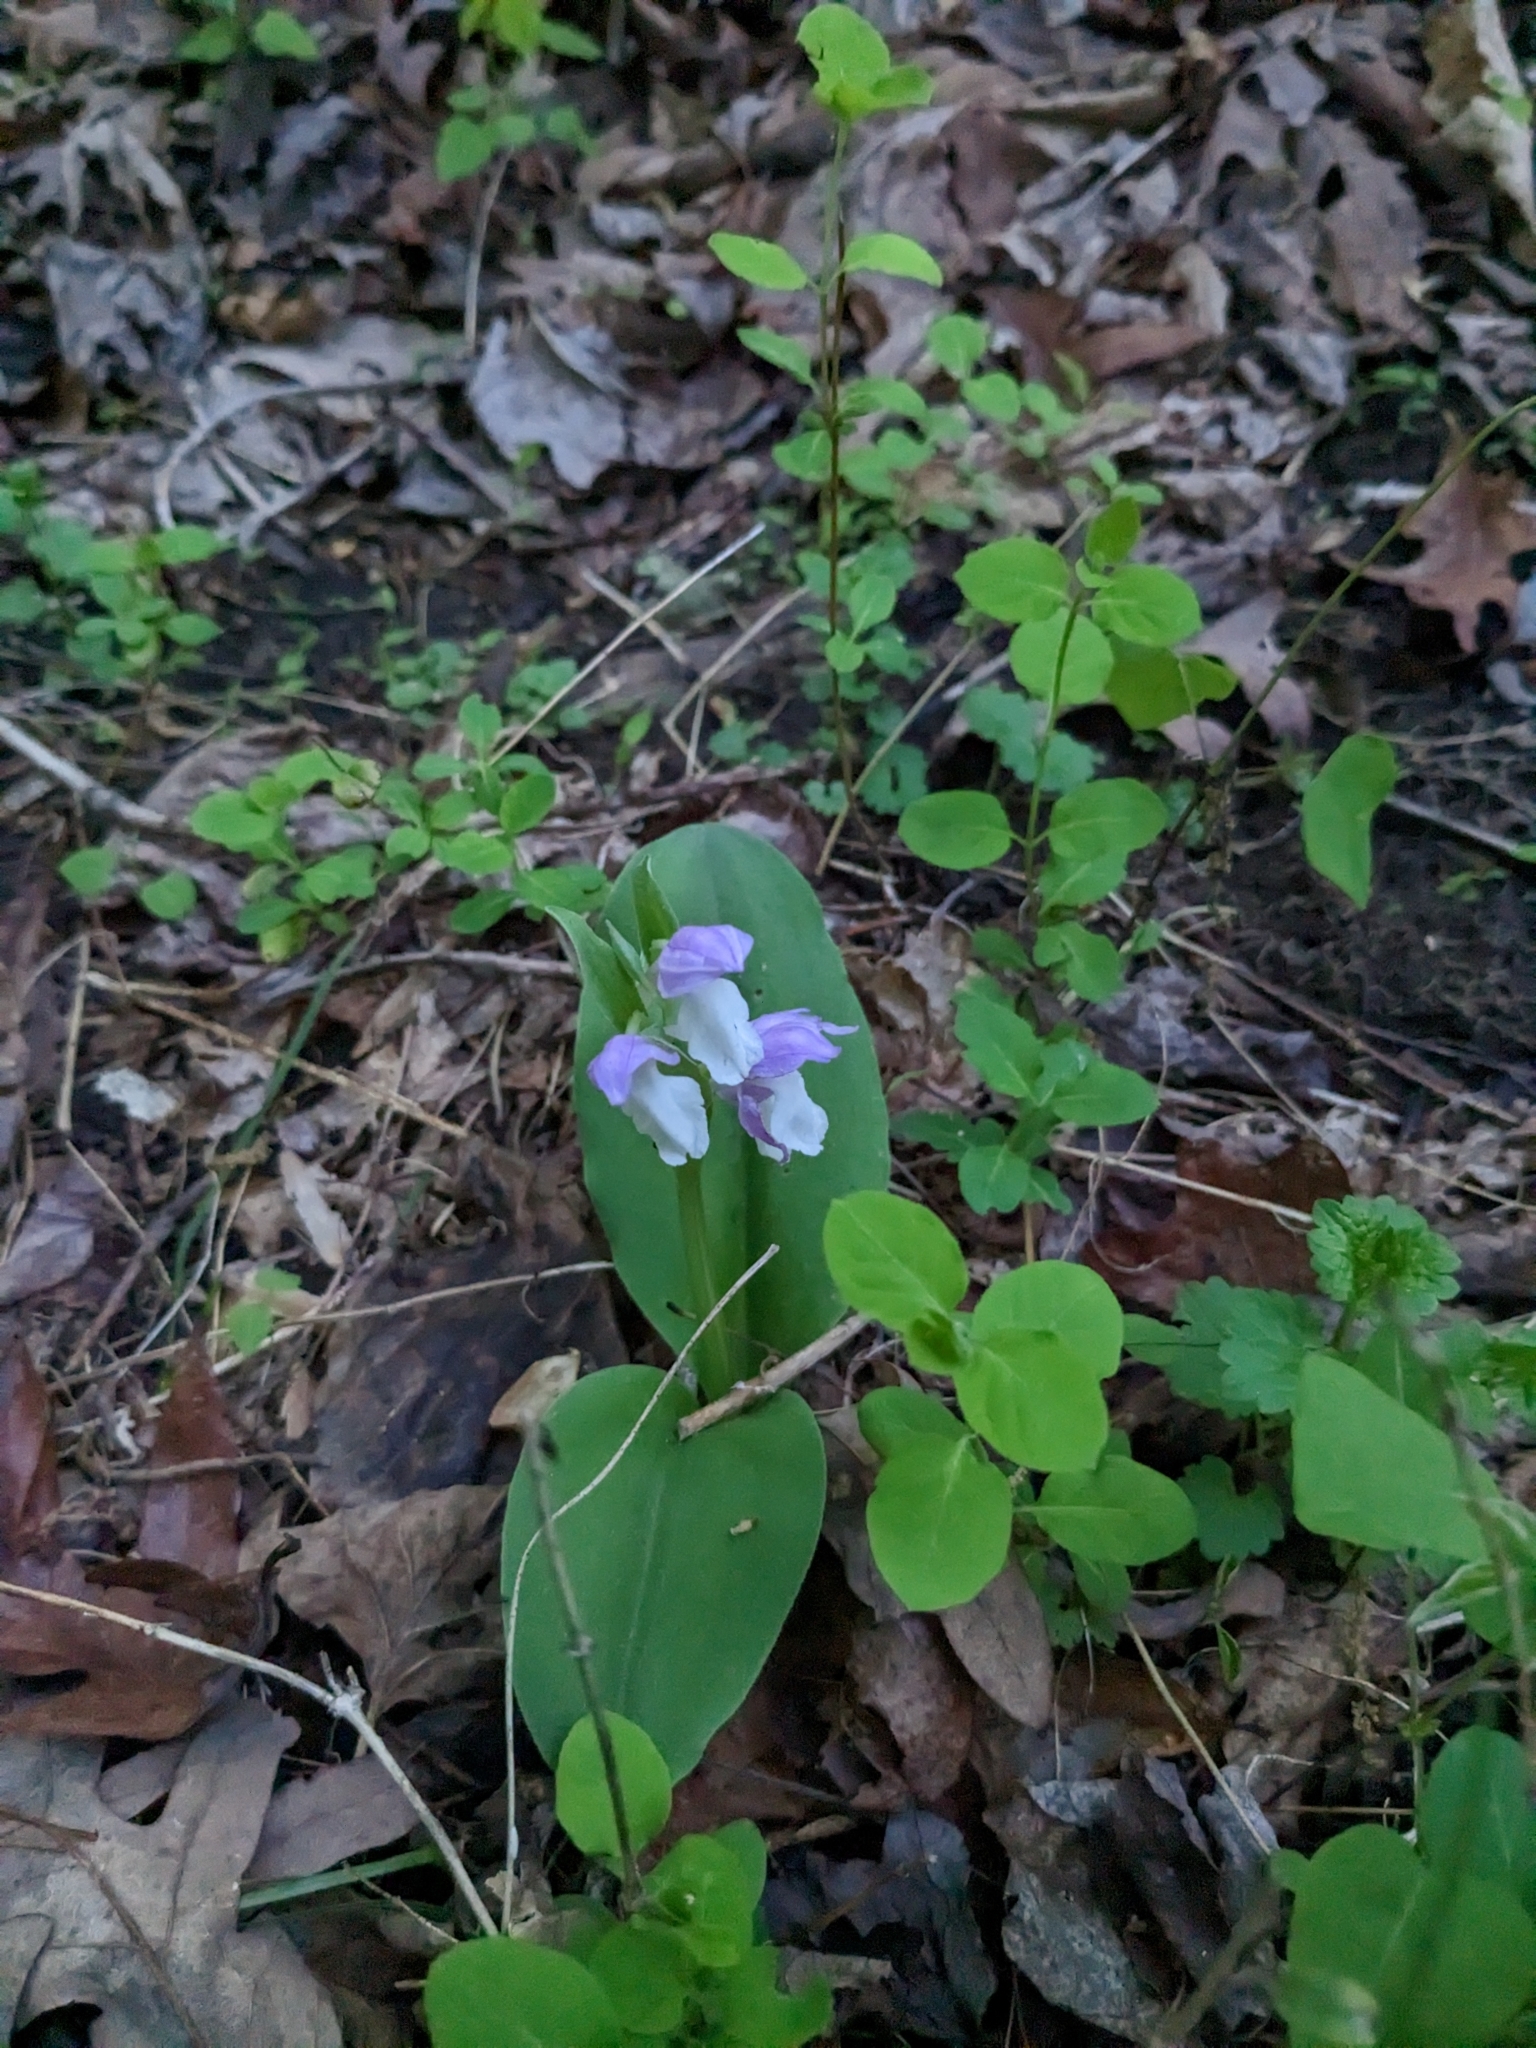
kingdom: Plantae
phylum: Tracheophyta
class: Liliopsida
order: Asparagales
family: Orchidaceae
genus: Galearis
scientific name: Galearis spectabilis
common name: Purple-hooded orchis
